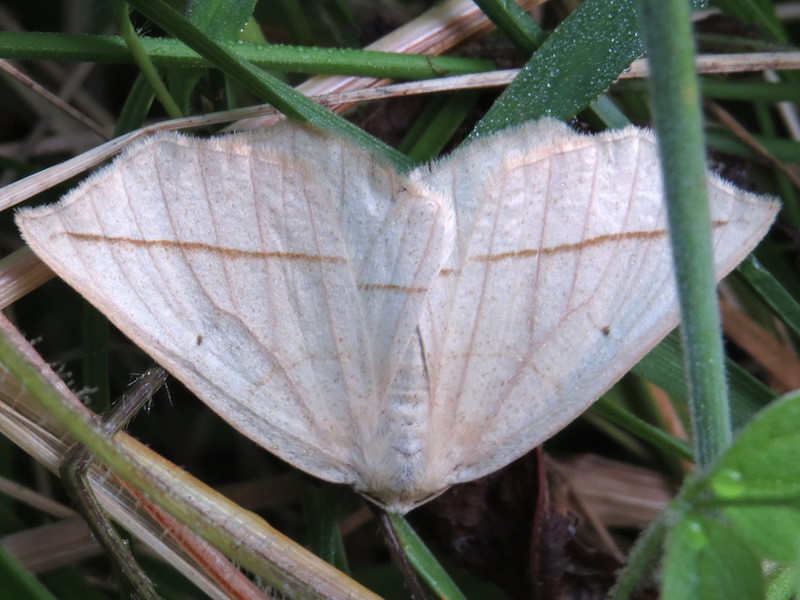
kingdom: Animalia
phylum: Arthropoda
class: Insecta
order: Lepidoptera
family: Geometridae
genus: Eusarca
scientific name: Eusarca confusaria
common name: Confused eusarca
